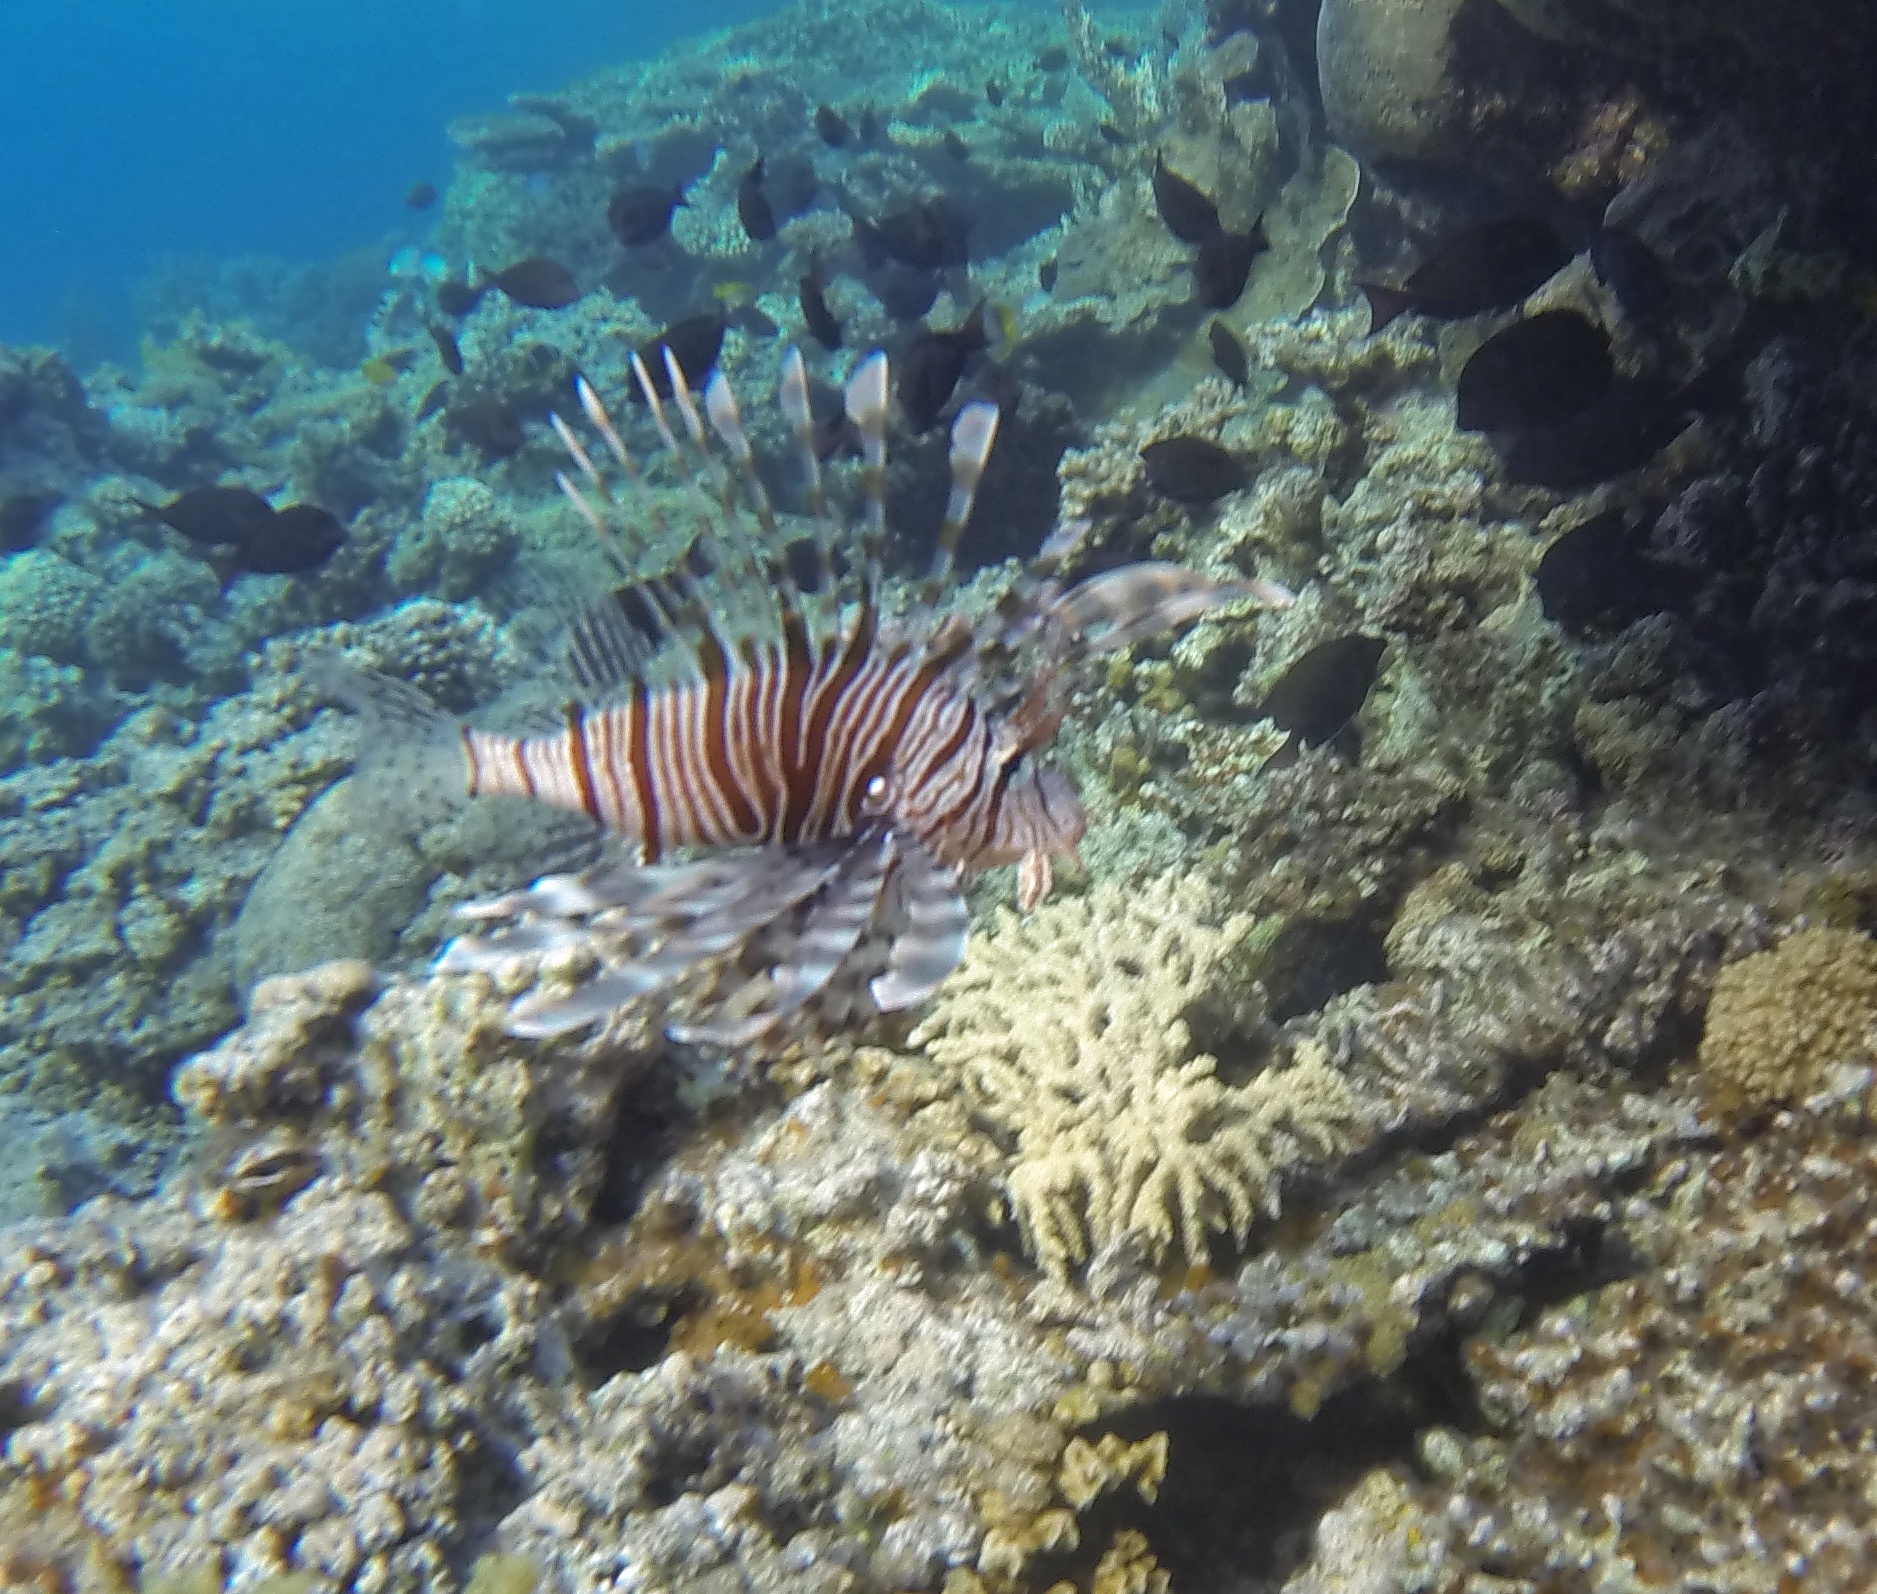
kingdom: Animalia
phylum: Chordata
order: Scorpaeniformes
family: Scorpaenidae
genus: Pterois
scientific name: Pterois miles
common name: Devil firefish
